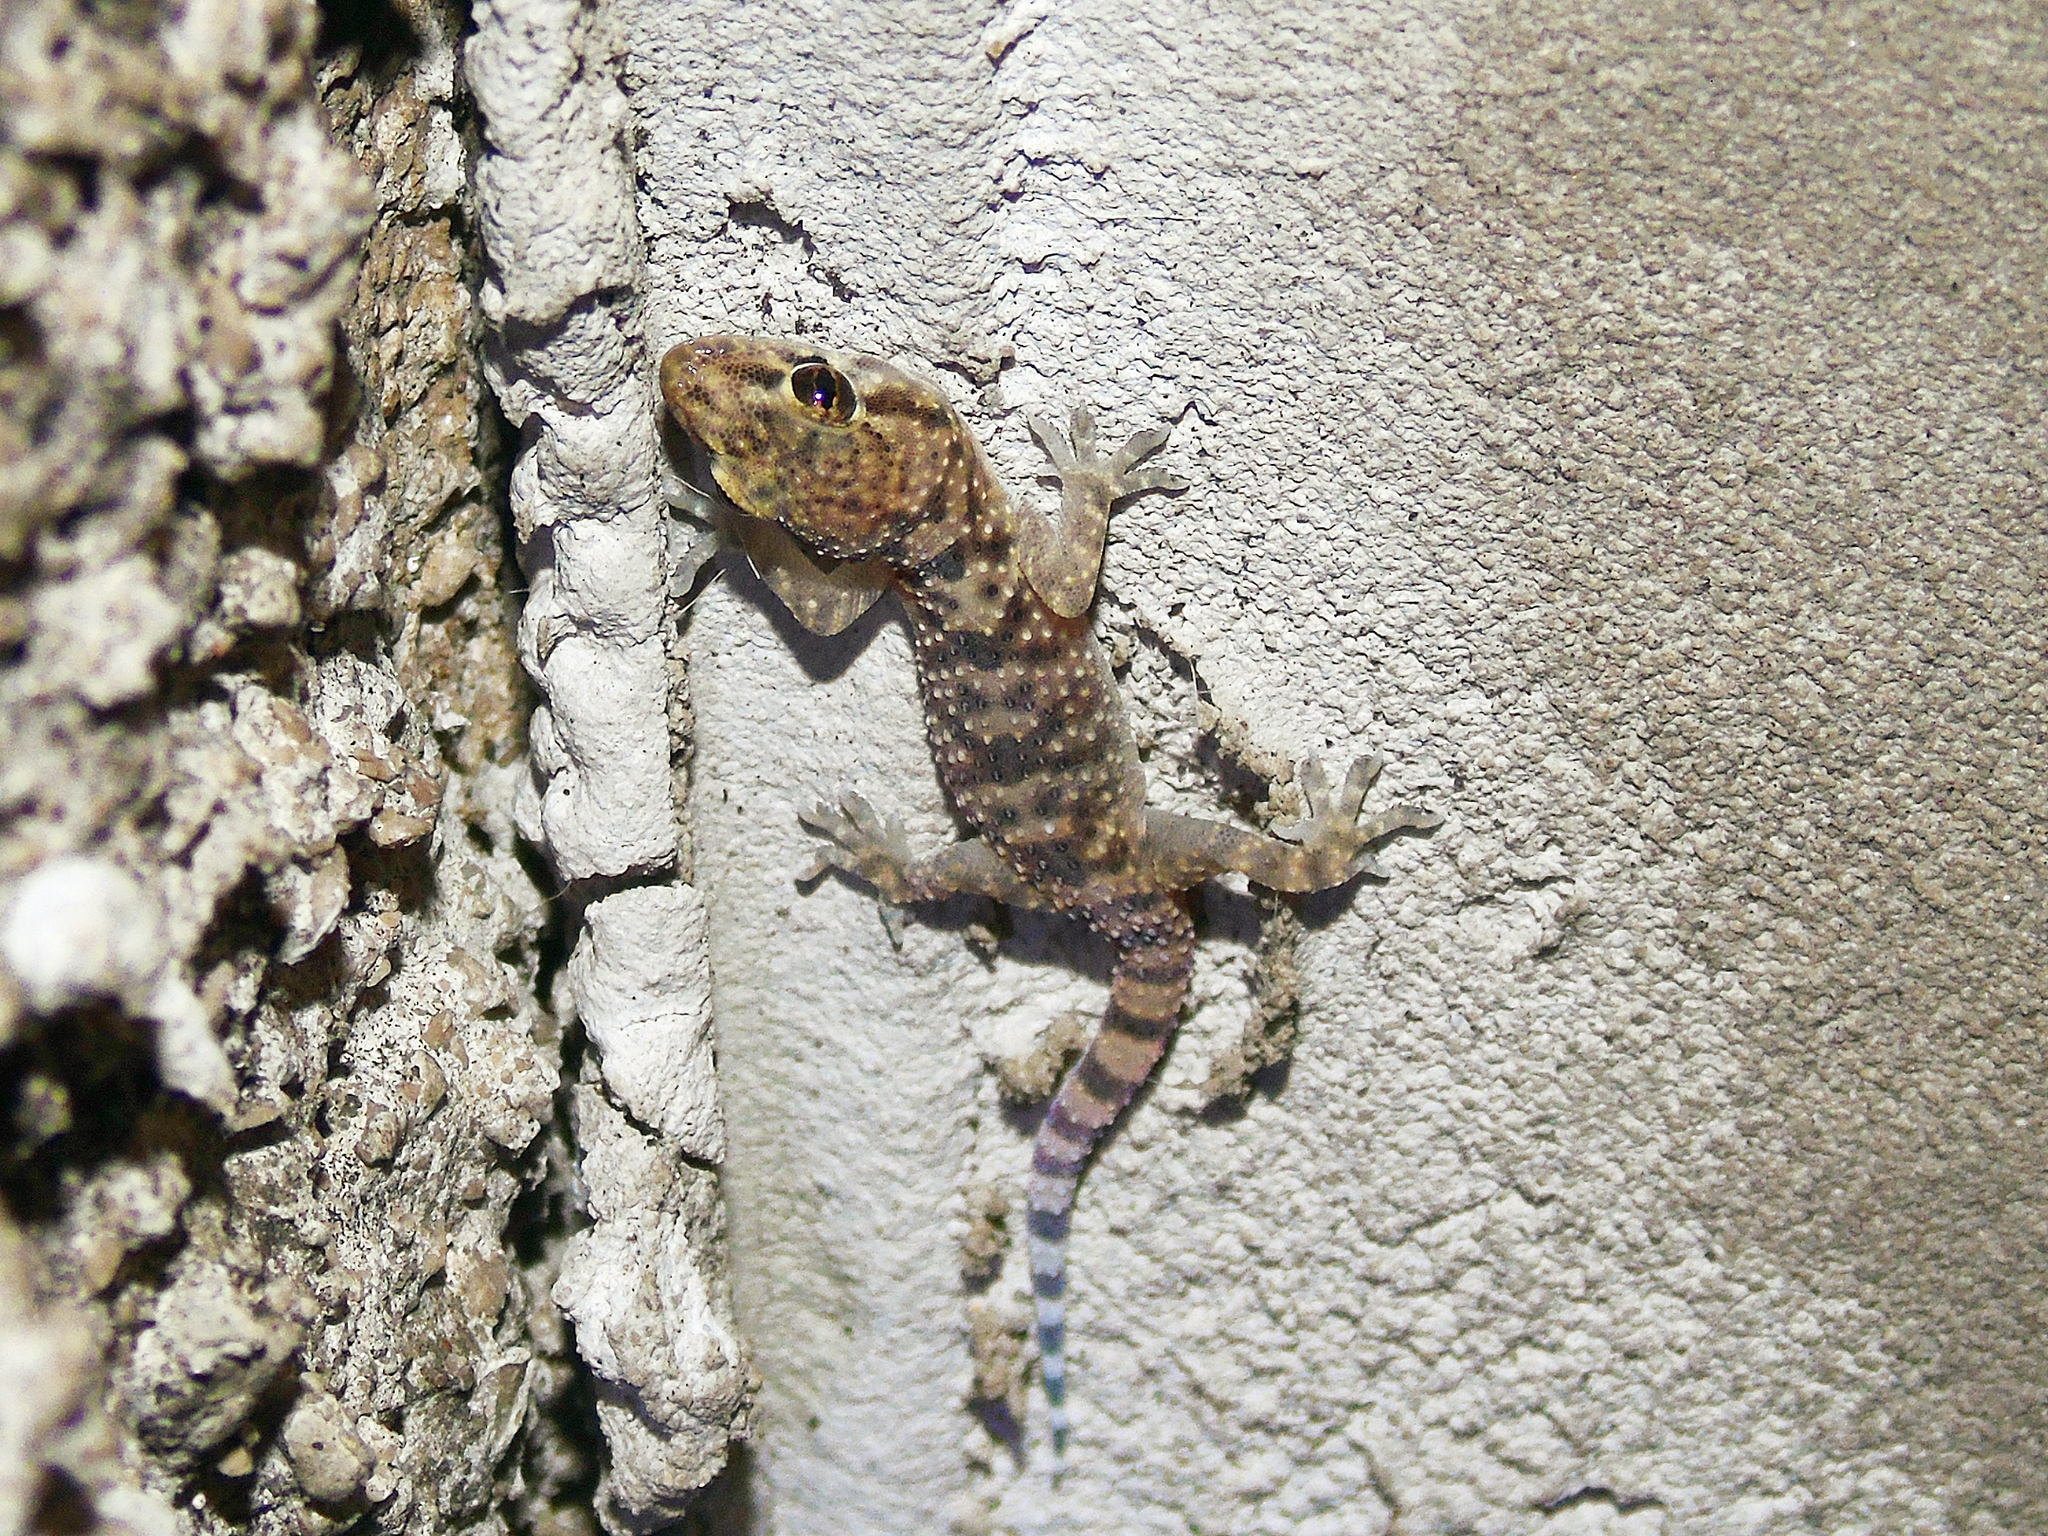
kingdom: Animalia
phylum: Chordata
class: Squamata
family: Gekkonidae
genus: Hemidactylus
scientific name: Hemidactylus turcicus
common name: Turkish gecko
